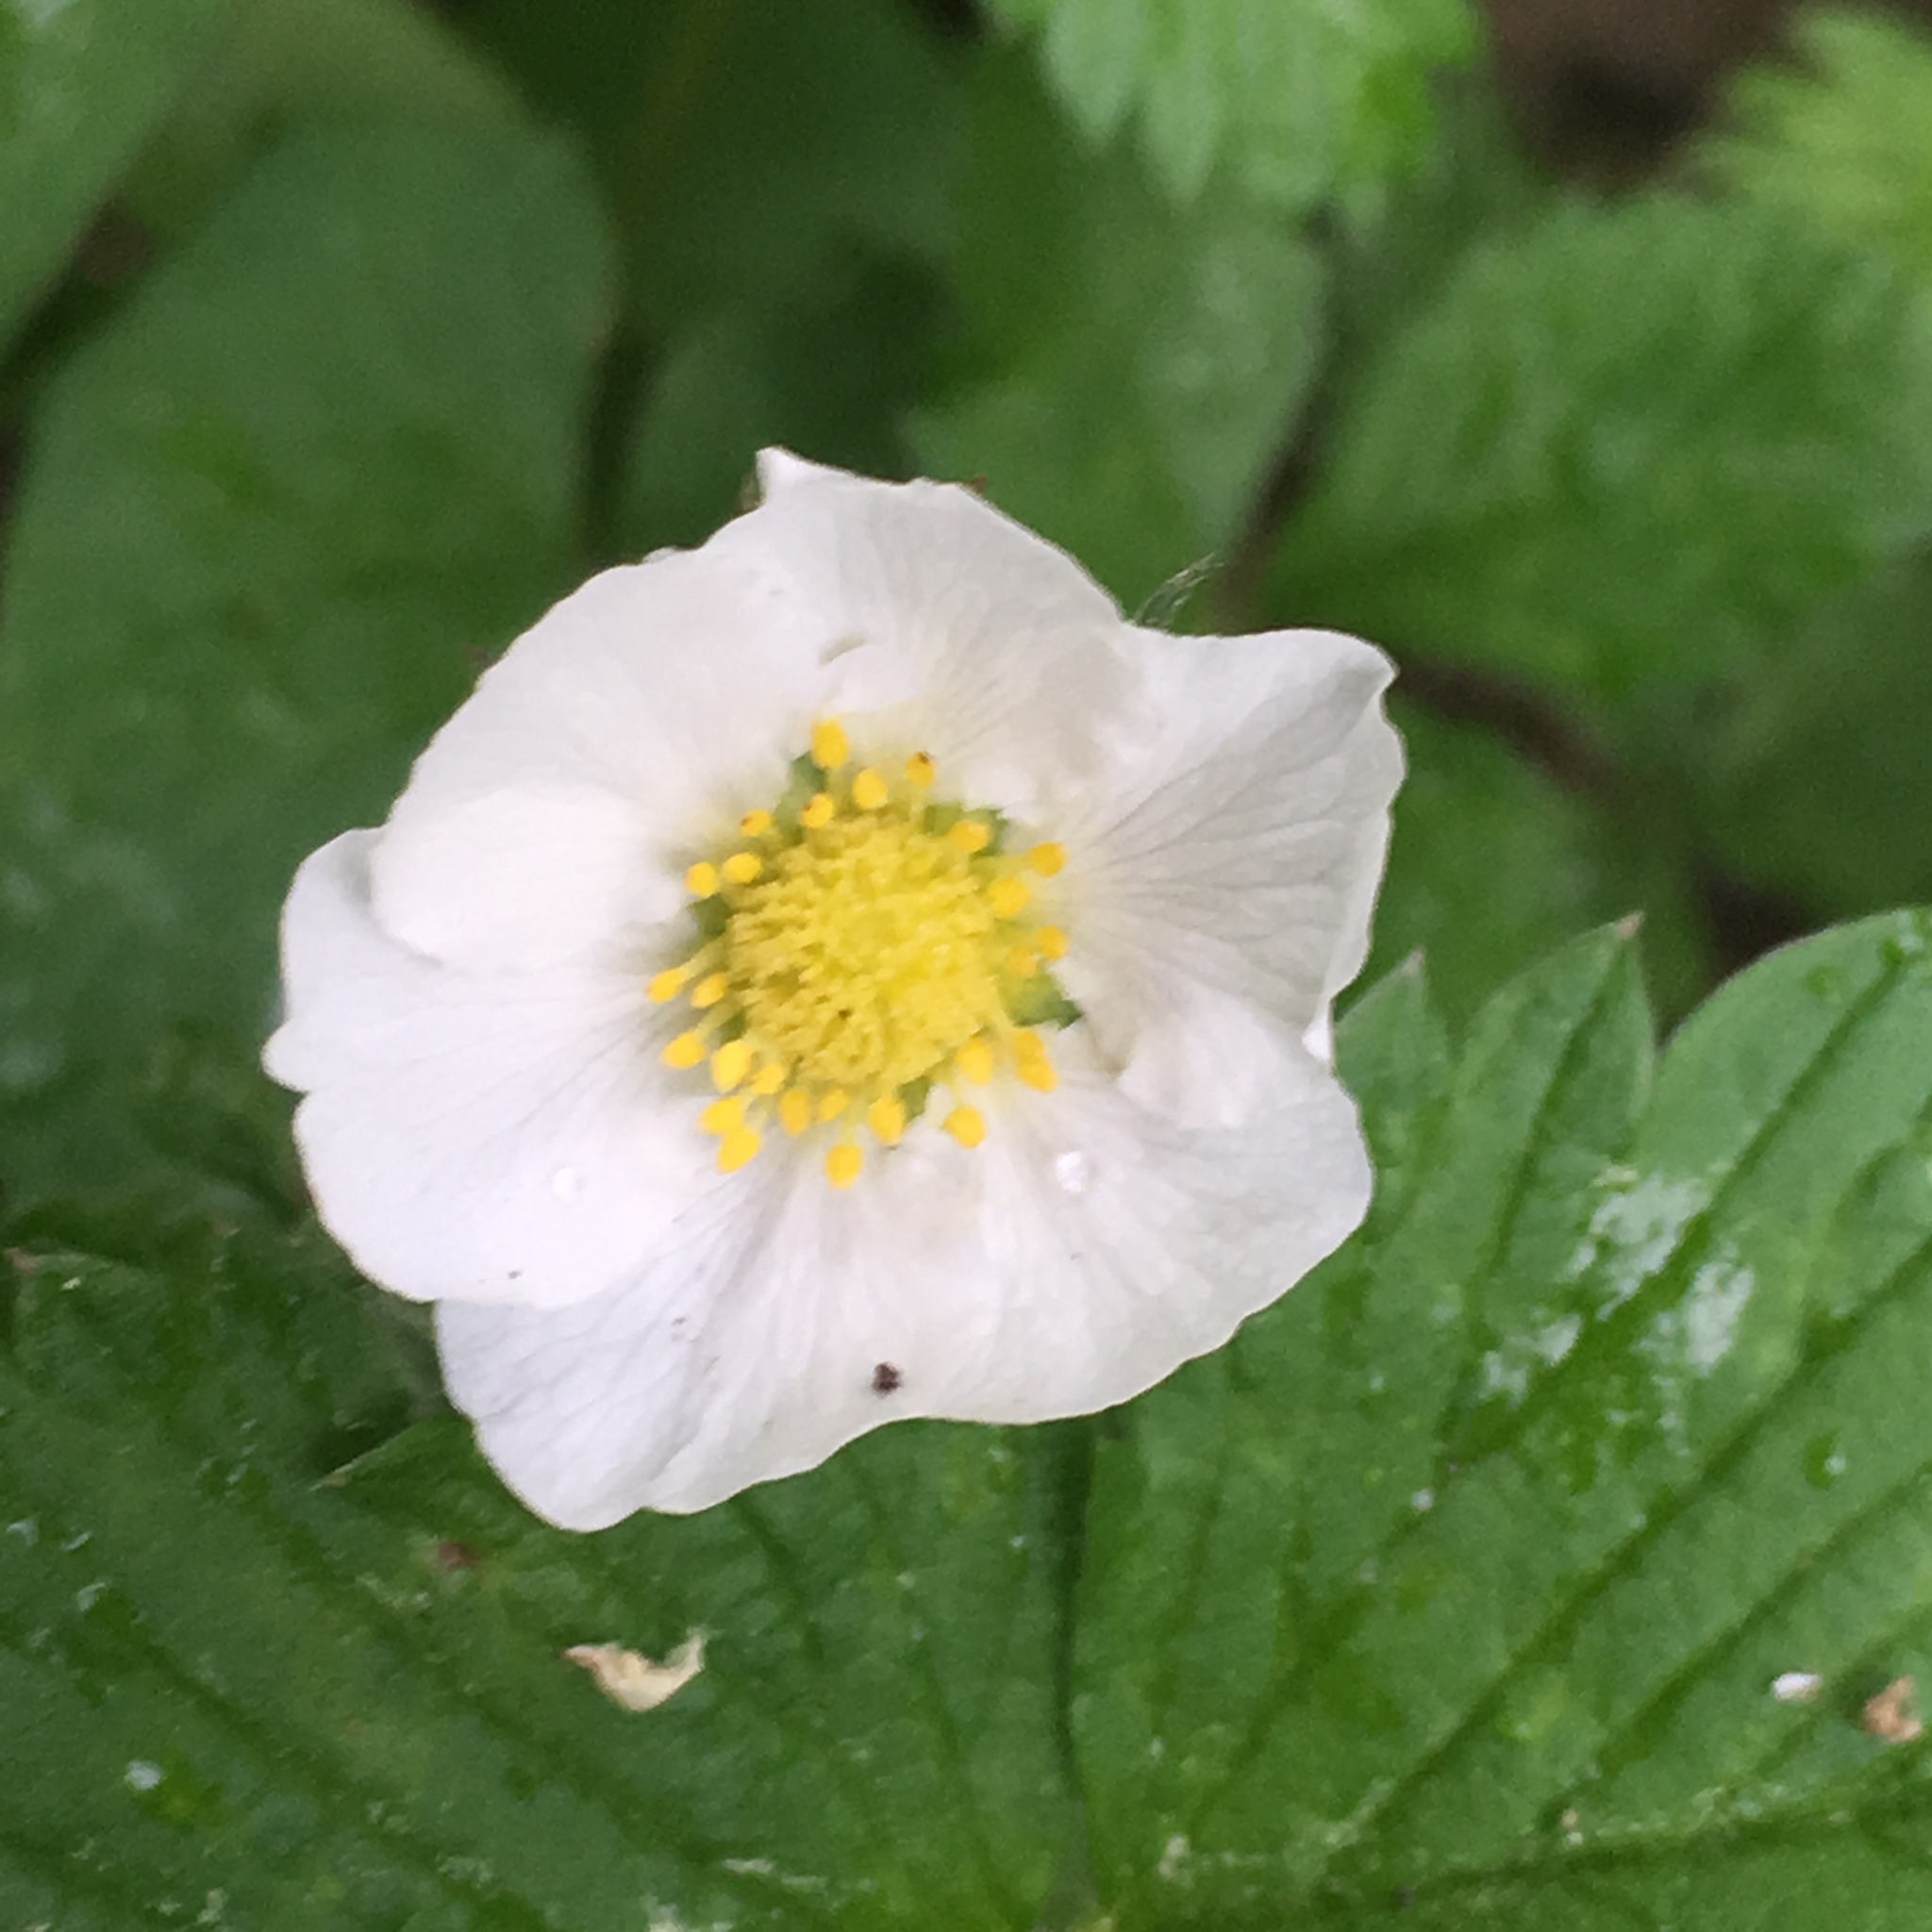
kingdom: Plantae
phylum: Tracheophyta
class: Magnoliopsida
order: Rosales
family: Rosaceae
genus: Fragaria
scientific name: Fragaria vesca
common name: Wild strawberry
